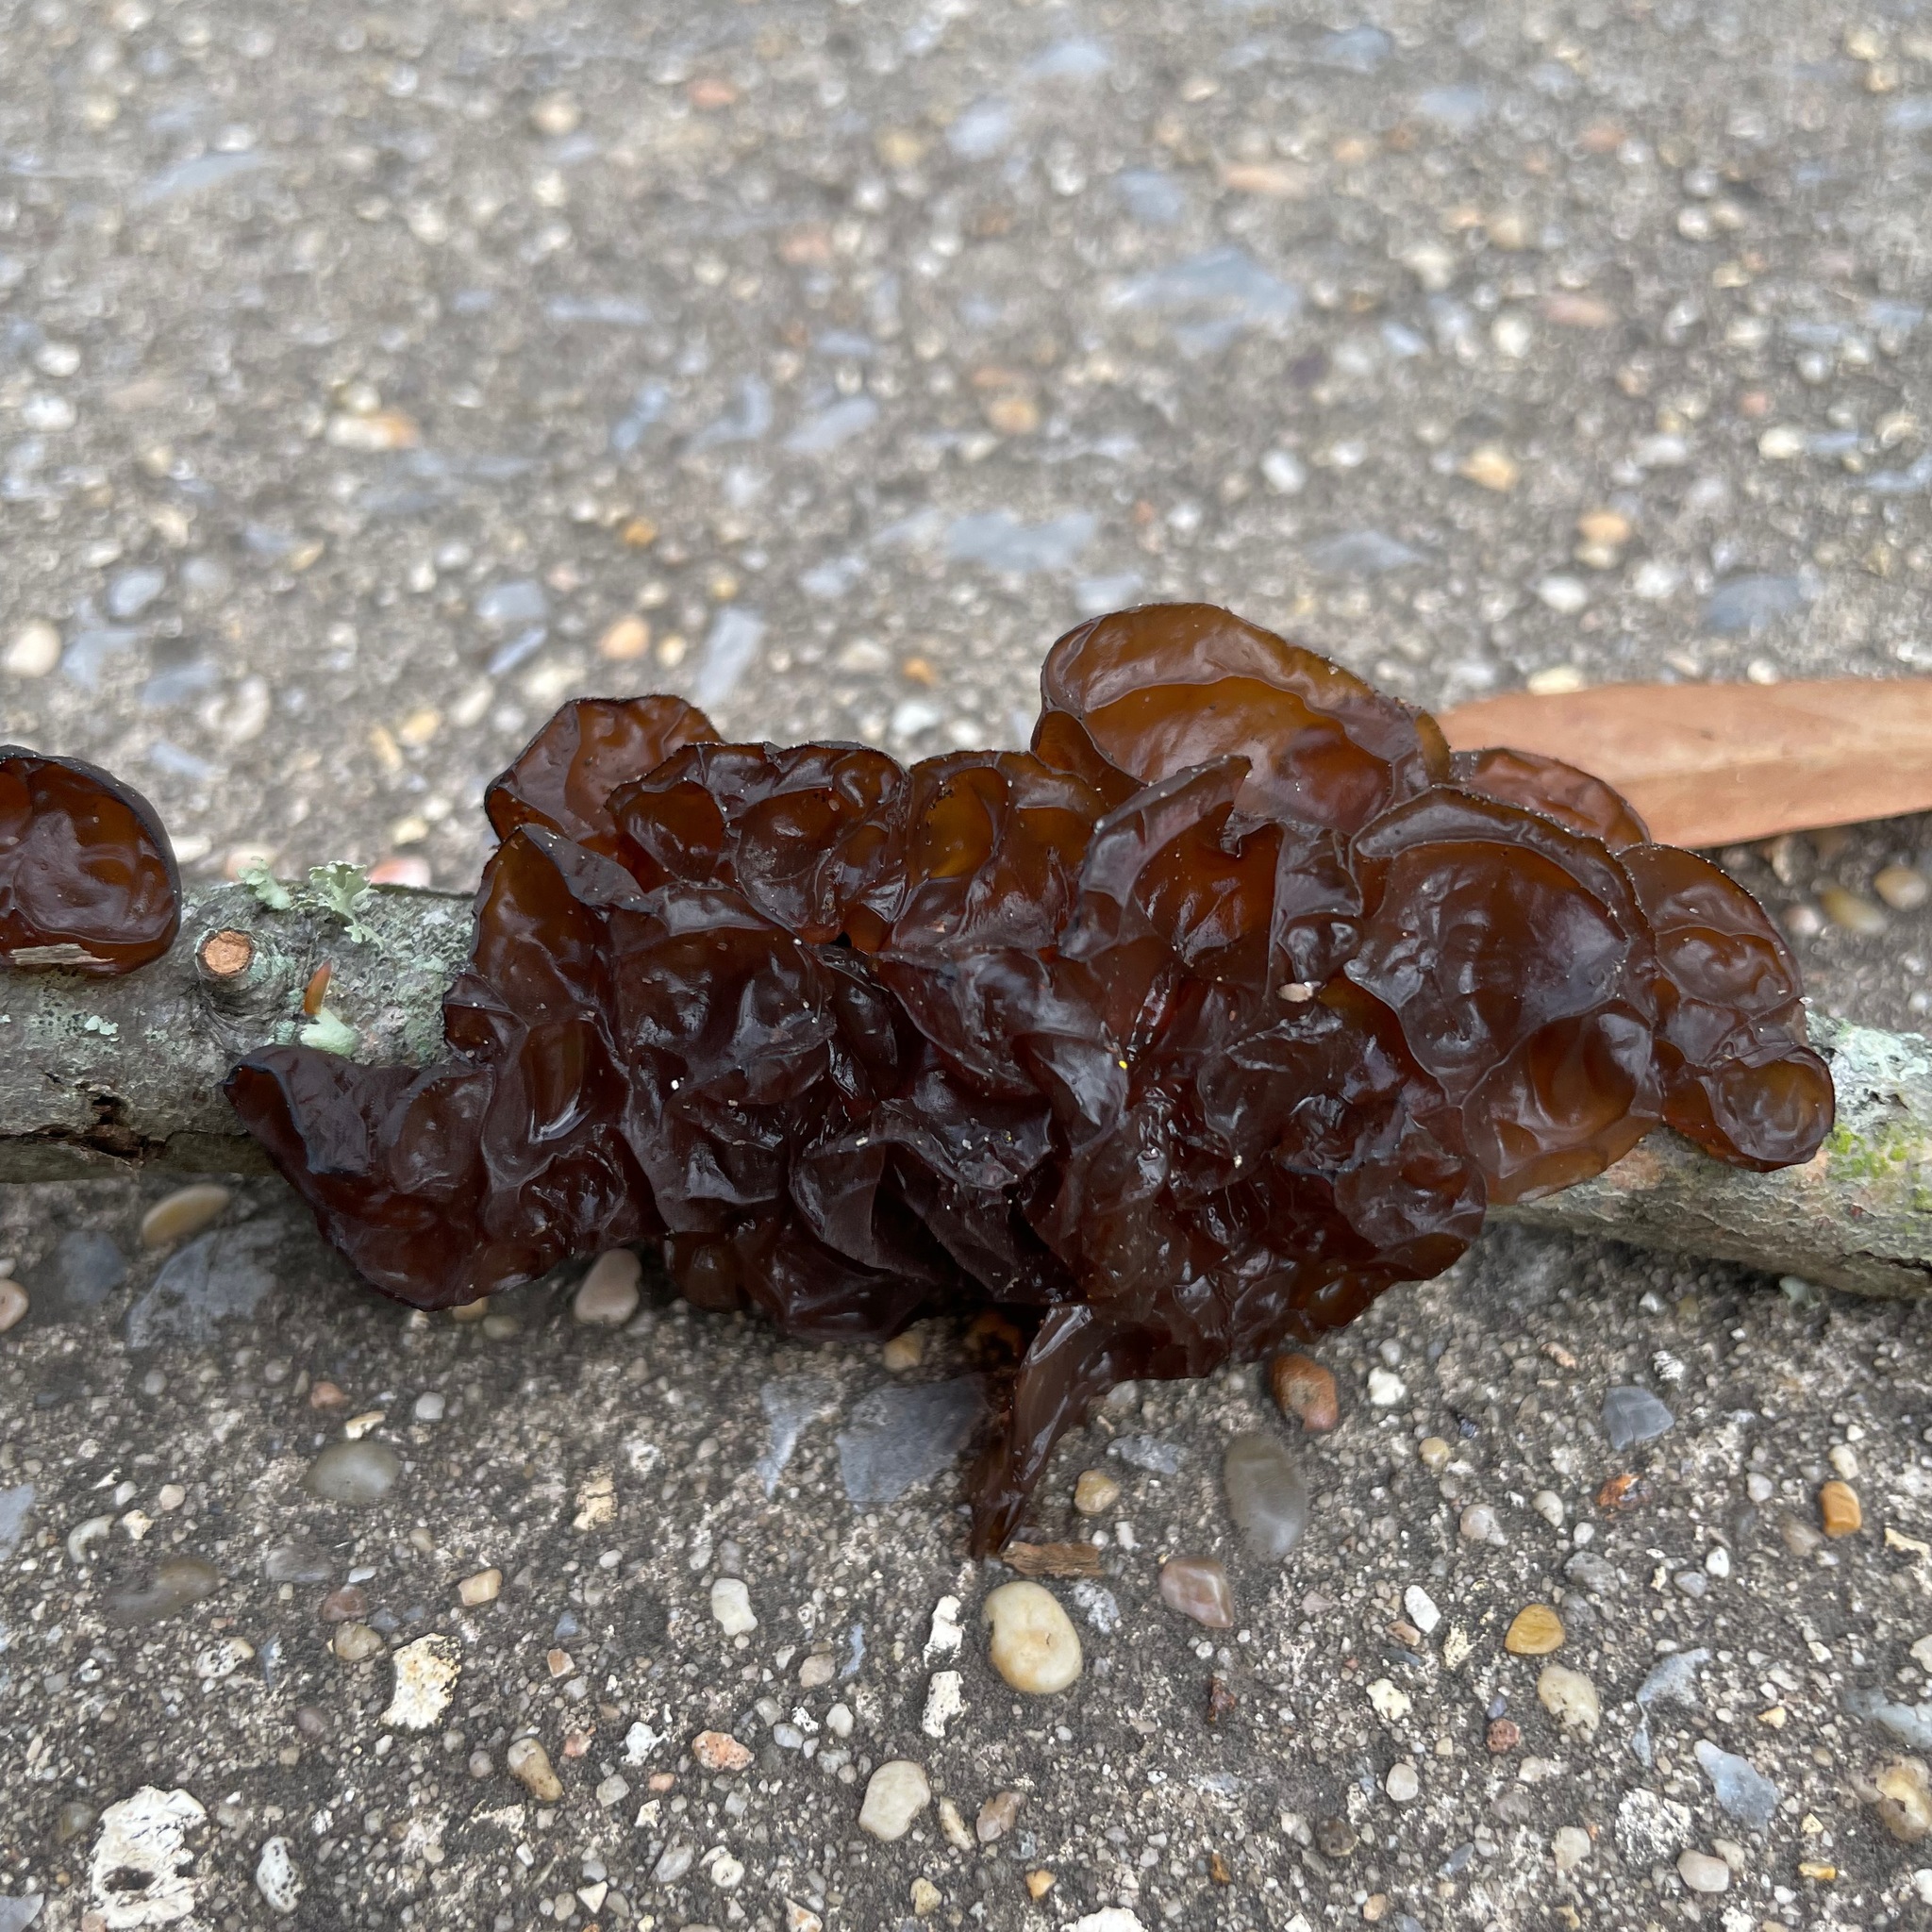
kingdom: Fungi
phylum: Basidiomycota
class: Agaricomycetes
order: Auriculariales
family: Auriculariaceae
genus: Exidia
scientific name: Exidia
